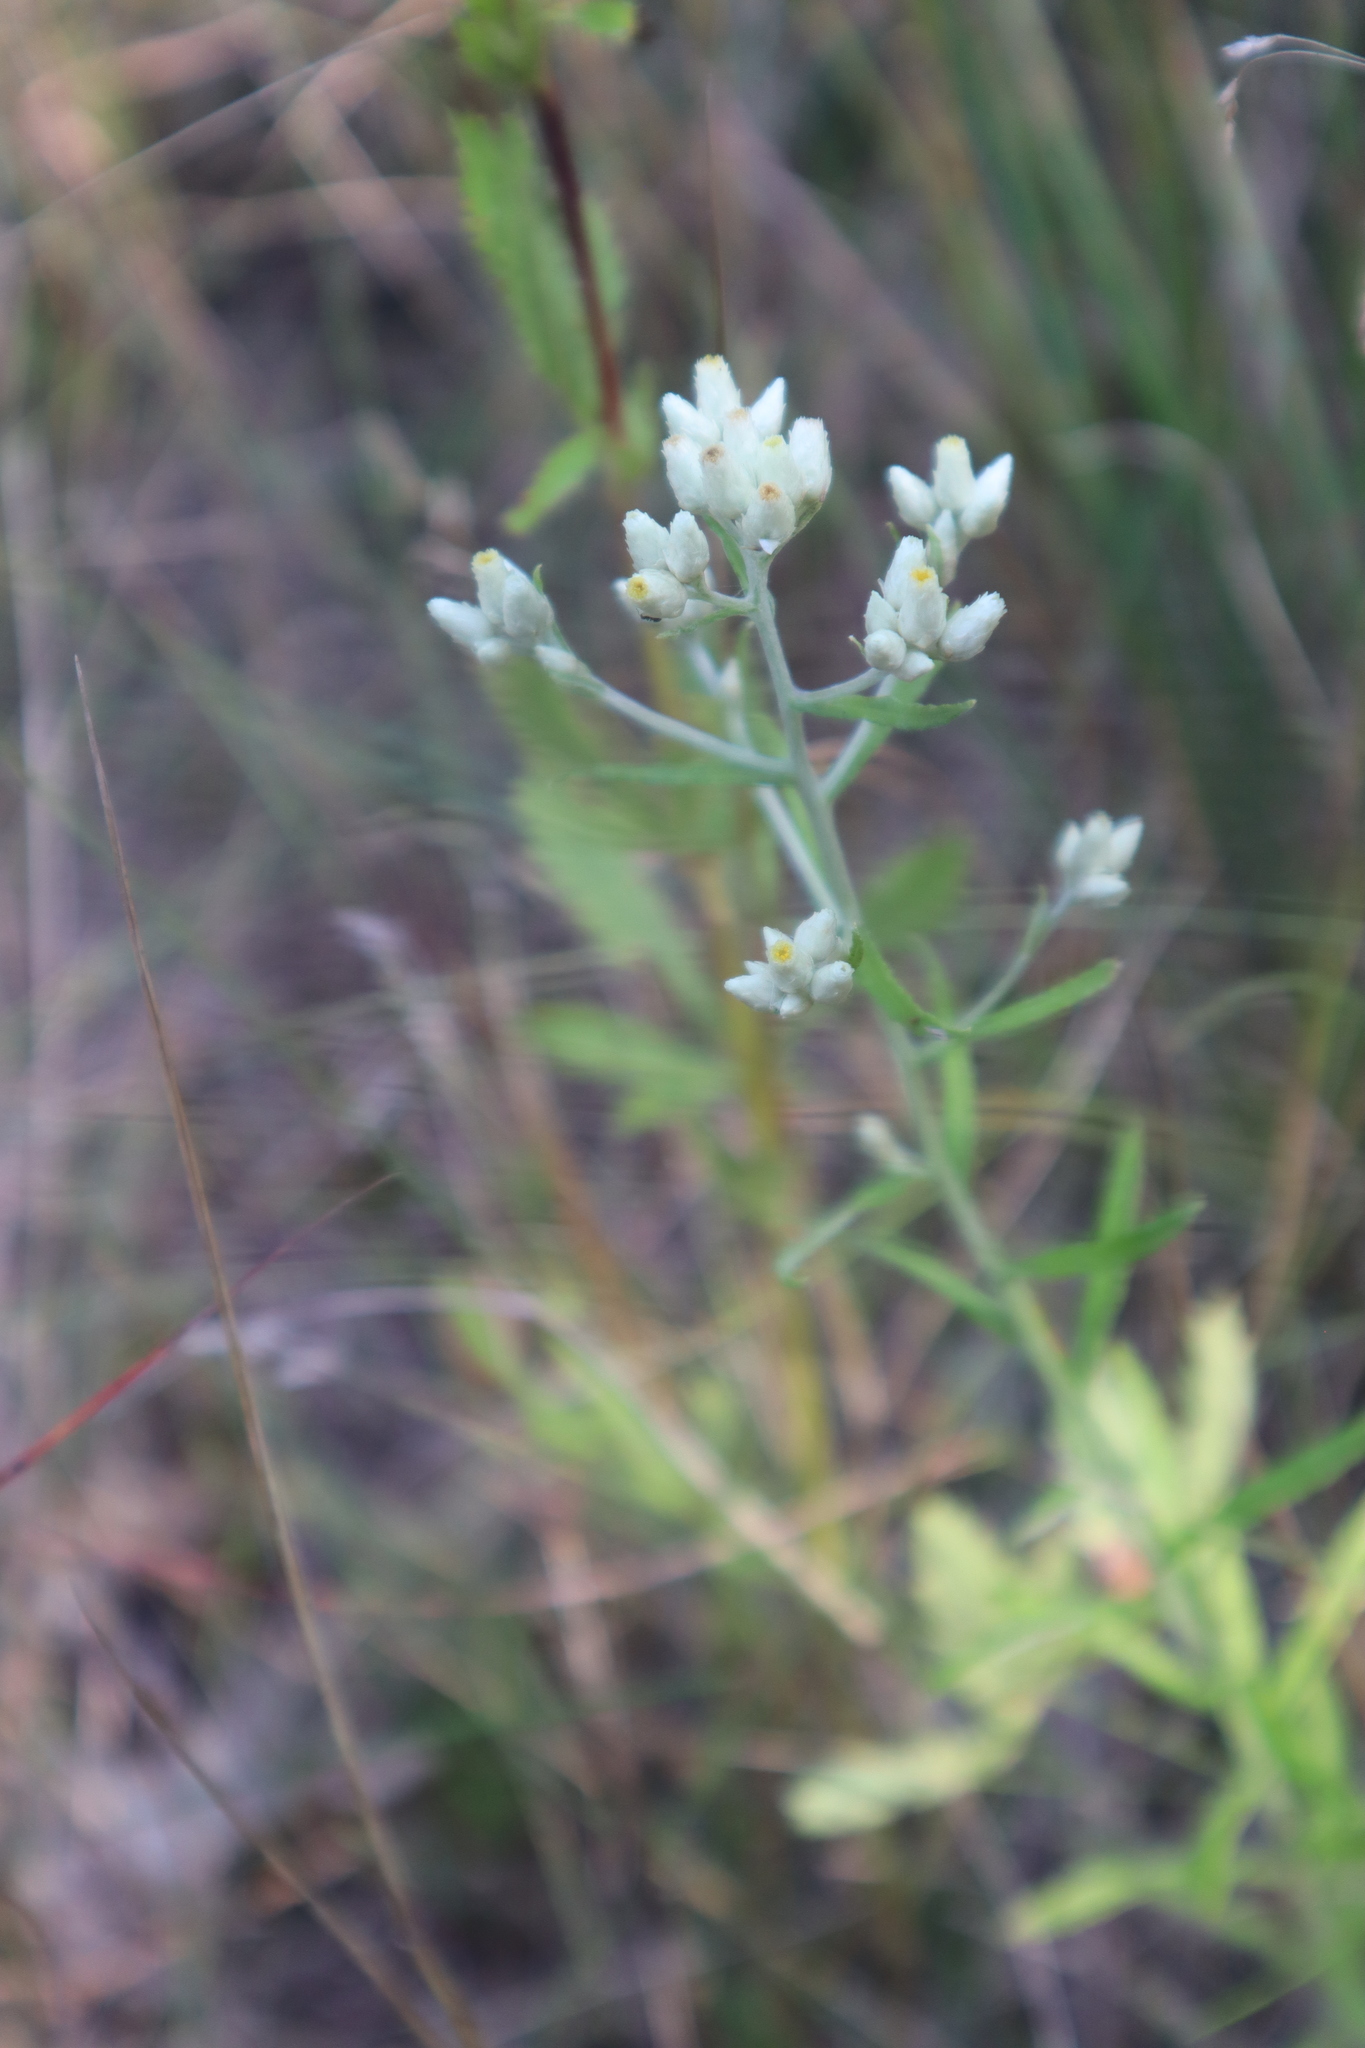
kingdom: Plantae
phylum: Tracheophyta
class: Magnoliopsida
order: Asterales
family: Asteraceae
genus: Pseudognaphalium
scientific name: Pseudognaphalium obtusifolium
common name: Eastern rabbit-tobacco
